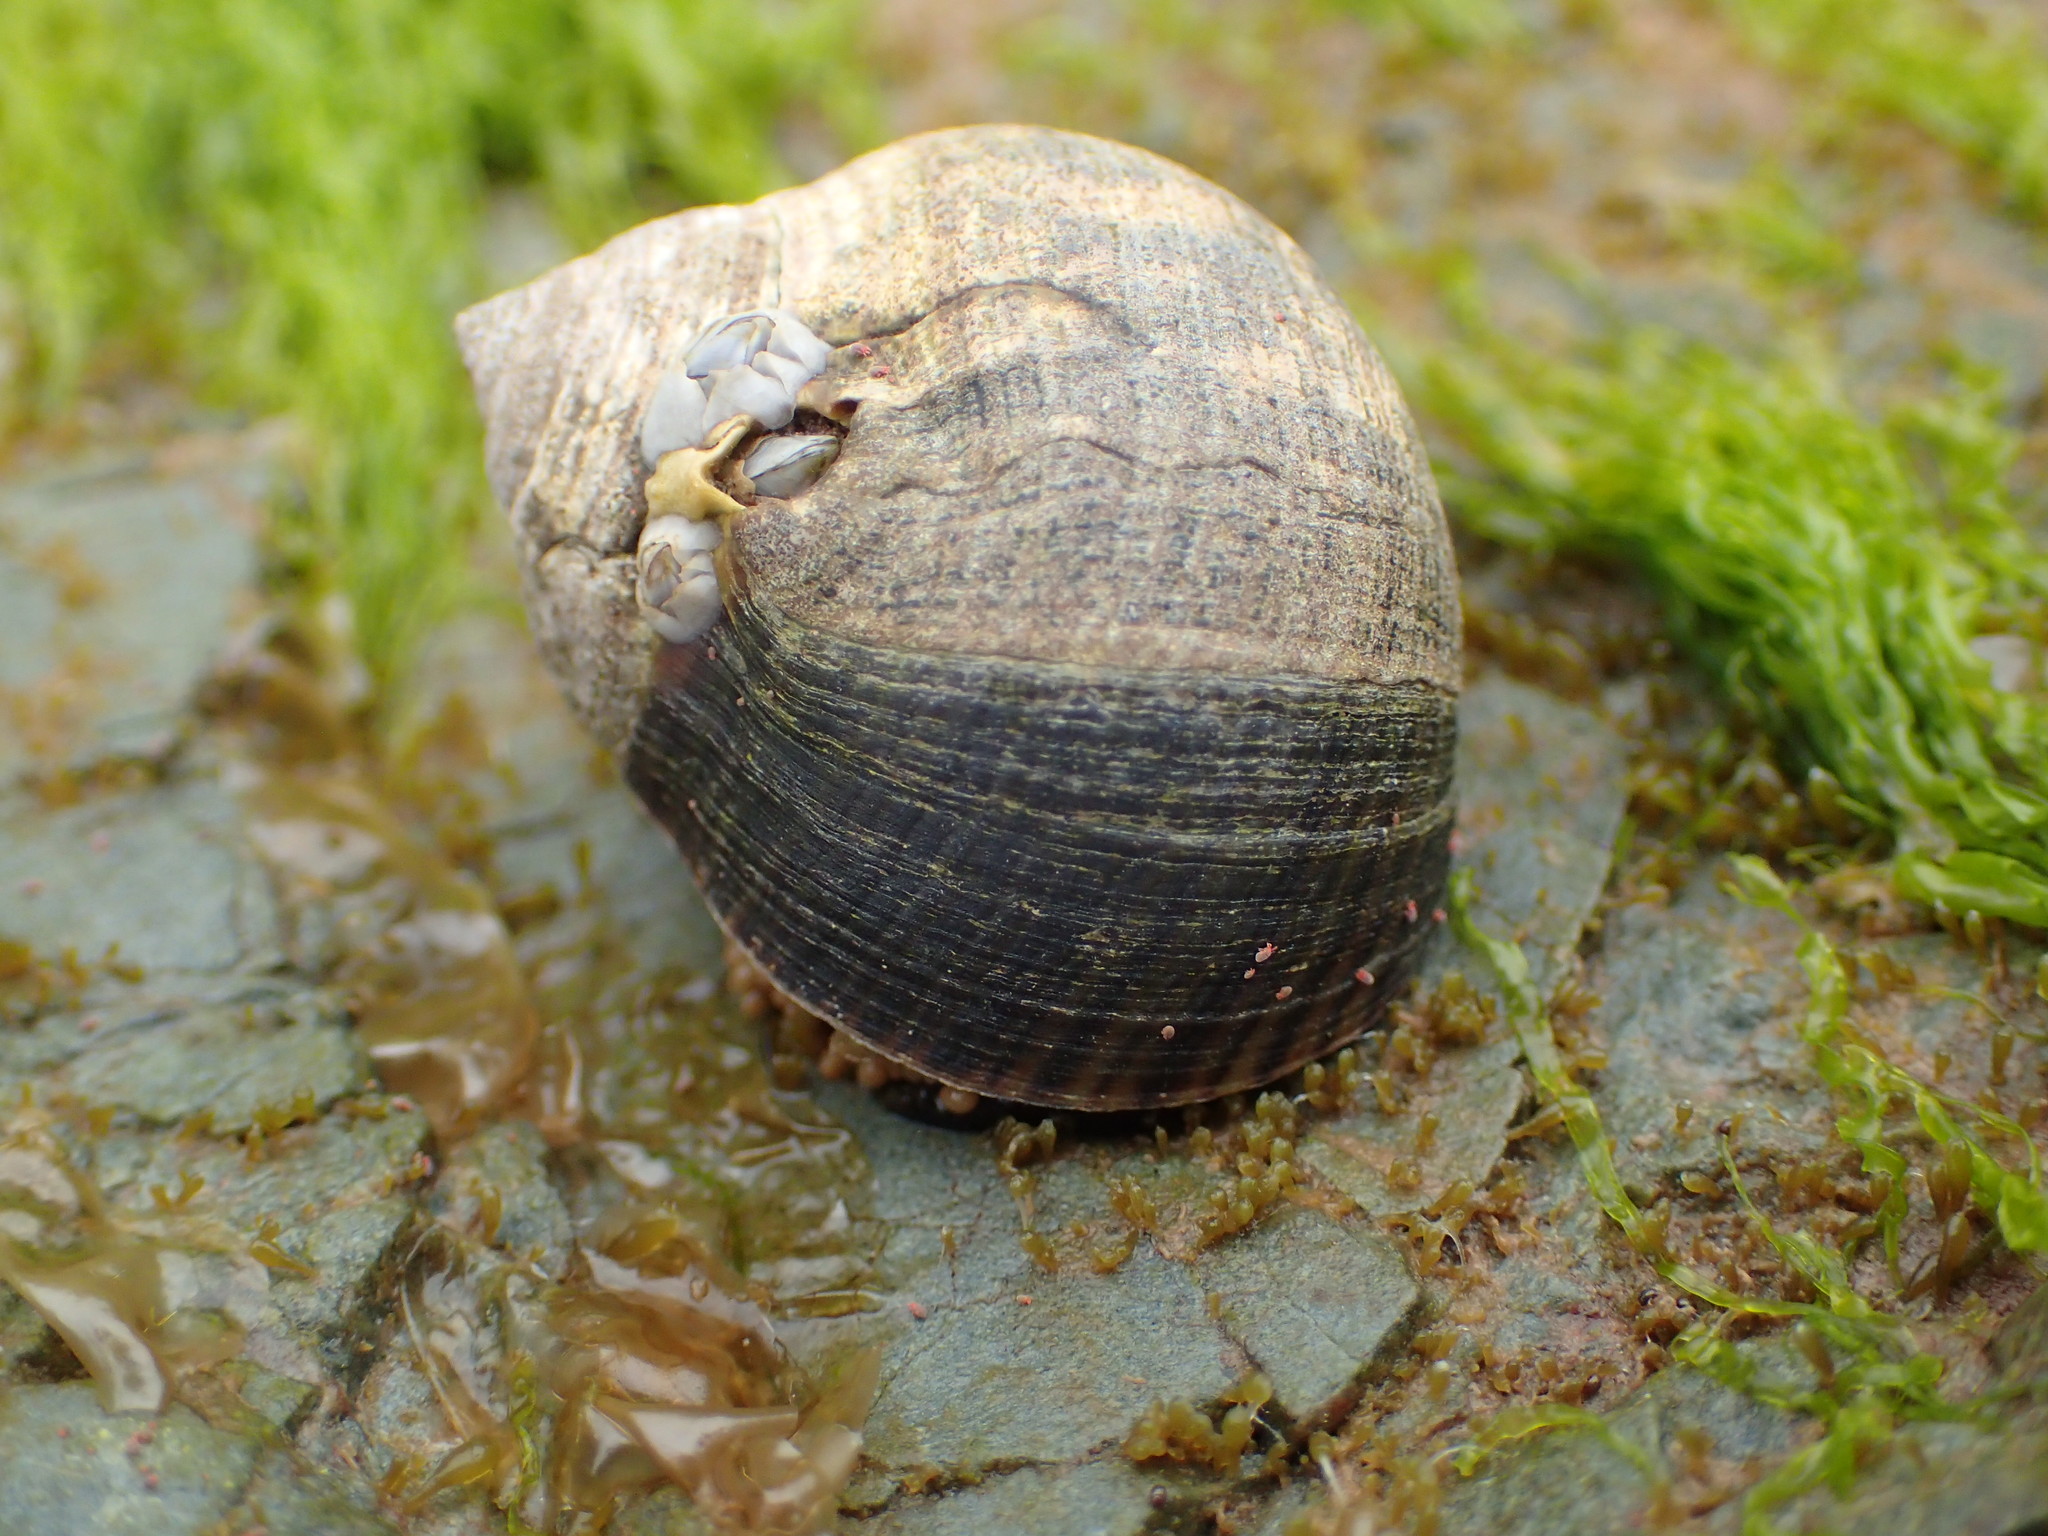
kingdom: Animalia
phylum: Mollusca
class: Gastropoda
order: Littorinimorpha
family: Littorinidae
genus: Littorina
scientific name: Littorina littorea
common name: Common periwinkle
